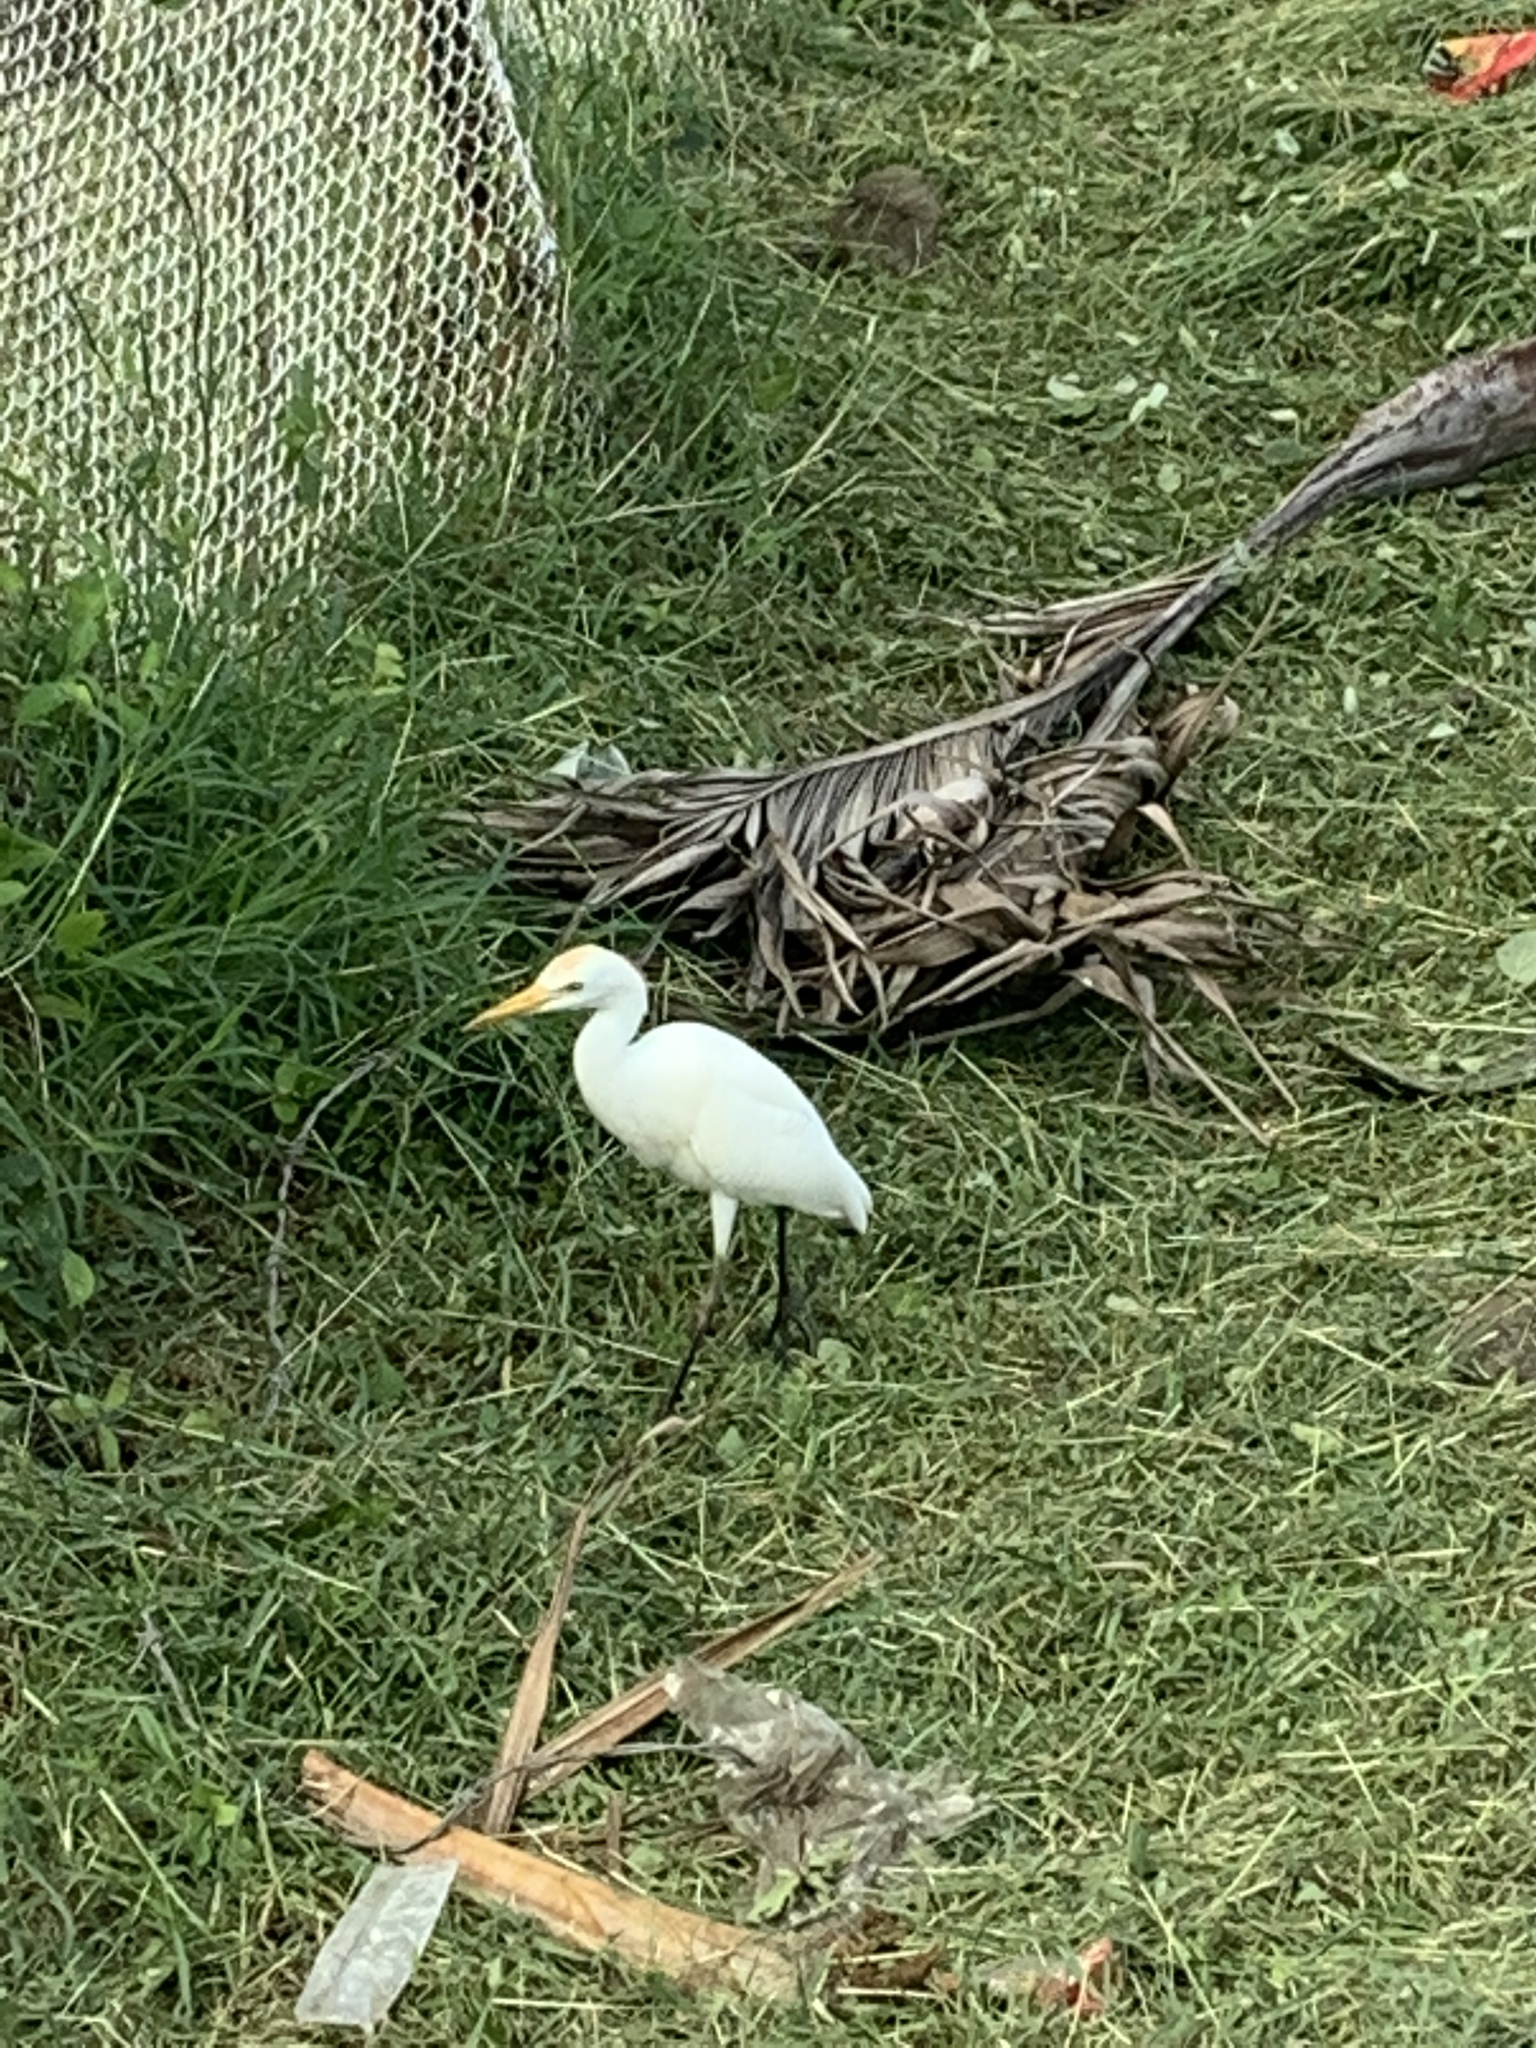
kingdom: Animalia
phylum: Chordata
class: Aves
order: Pelecaniformes
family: Ardeidae
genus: Bubulcus
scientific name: Bubulcus ibis
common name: Cattle egret
